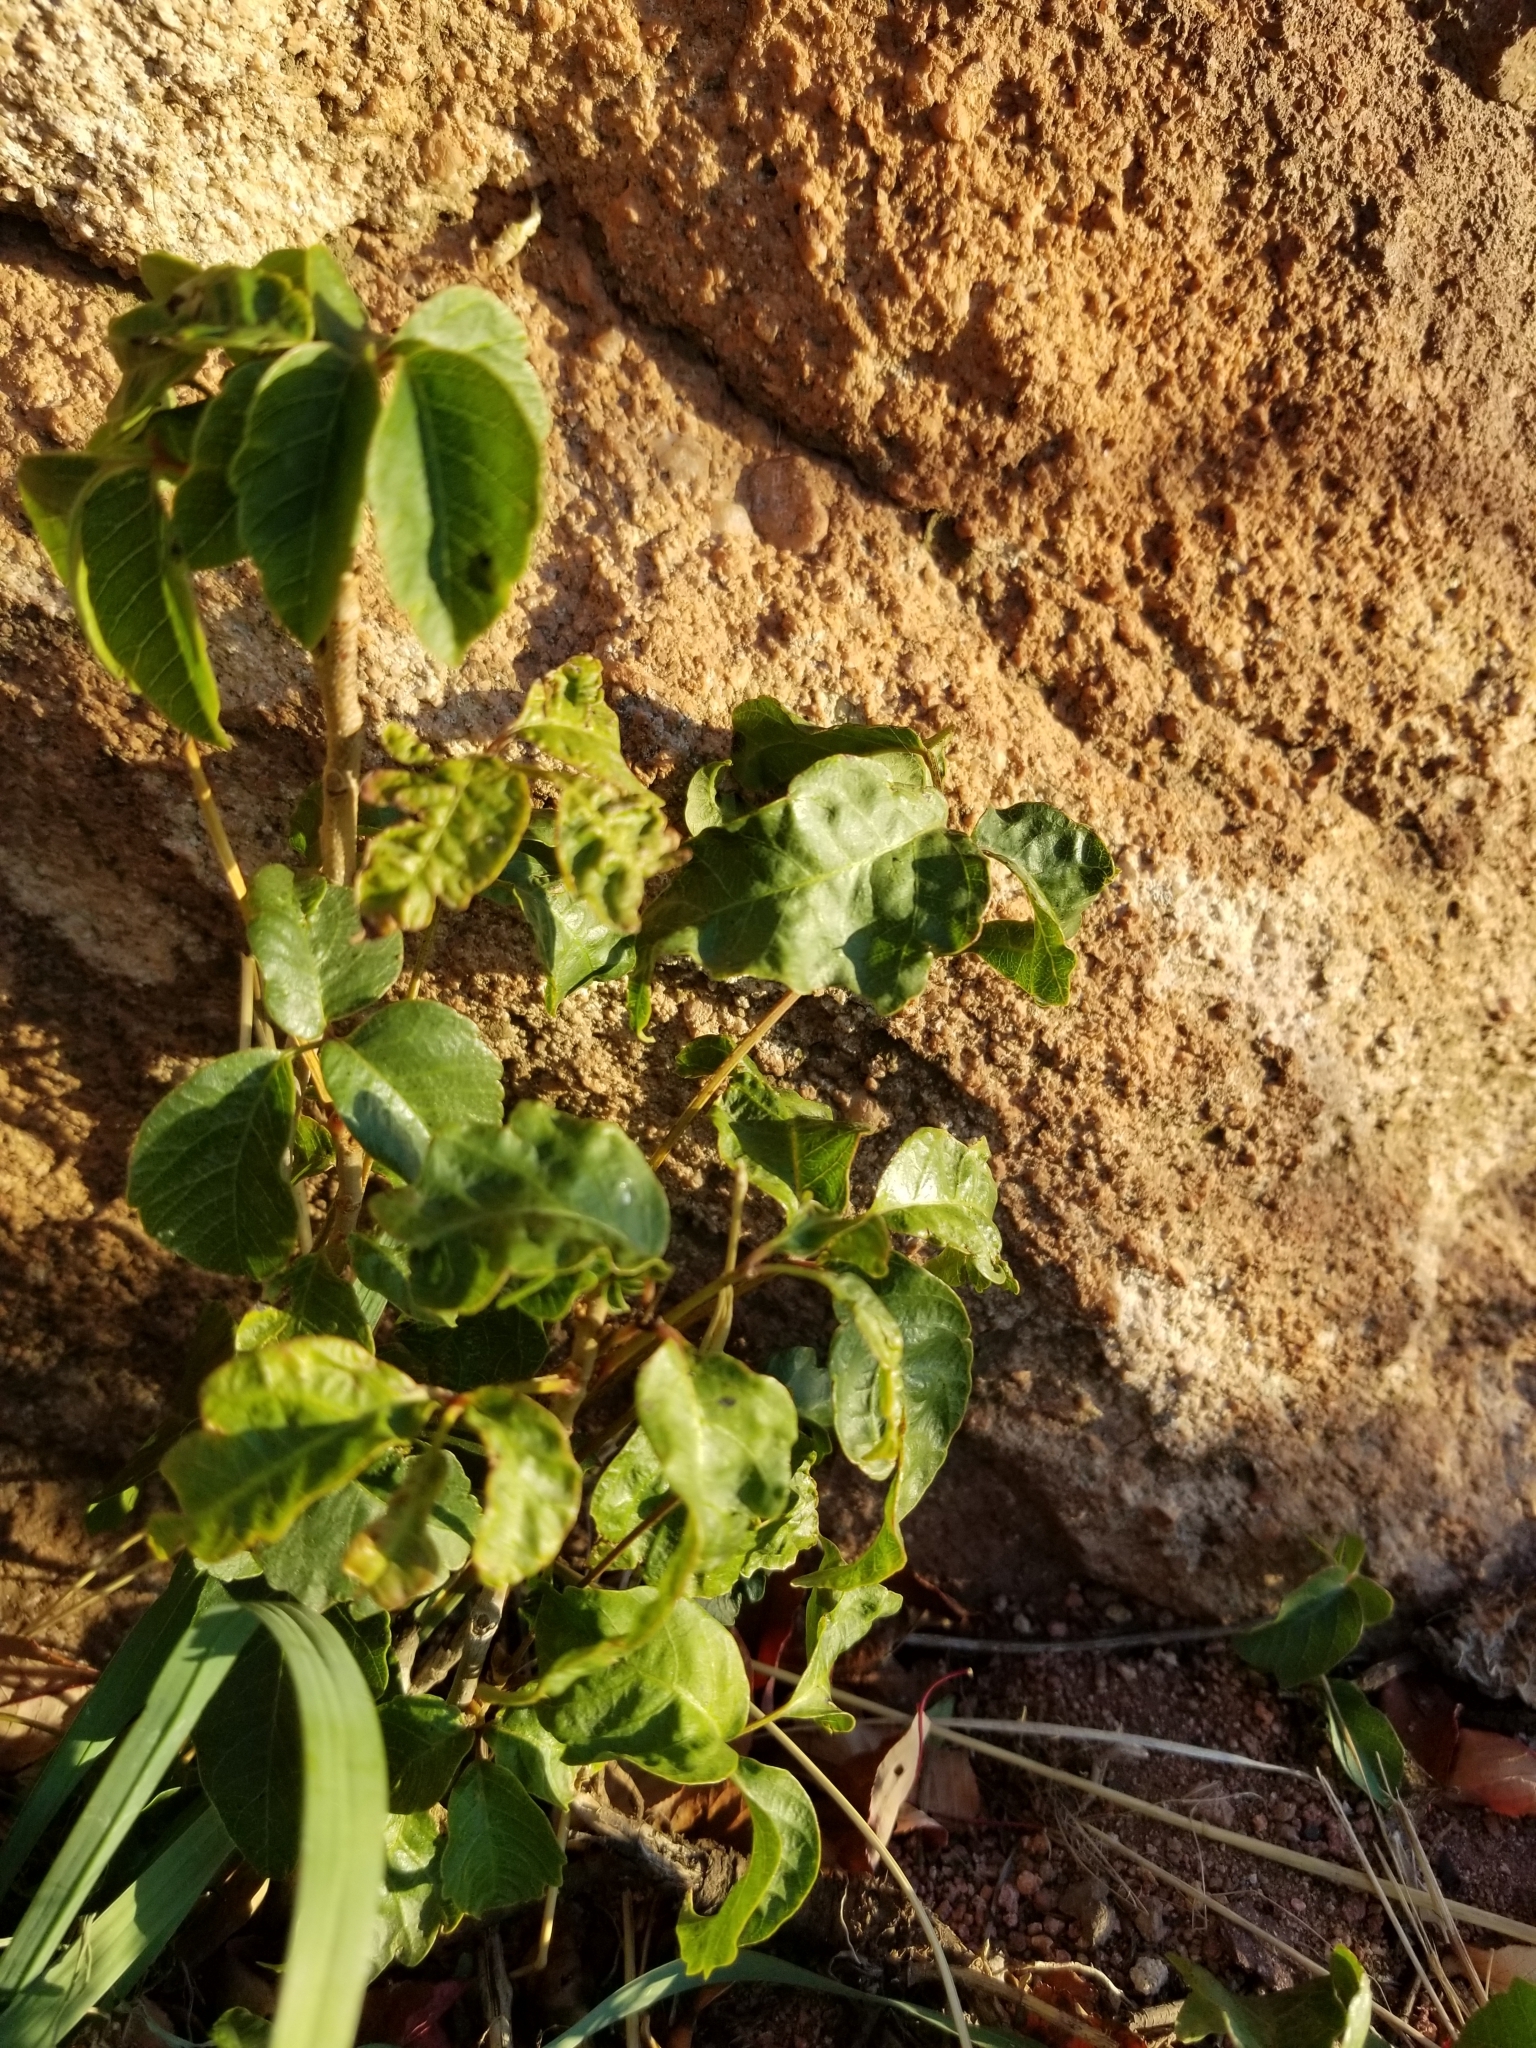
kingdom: Plantae
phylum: Tracheophyta
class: Magnoliopsida
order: Sapindales
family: Anacardiaceae
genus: Toxicodendron
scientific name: Toxicodendron rydbergii
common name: Rydberg's poison-ivy
